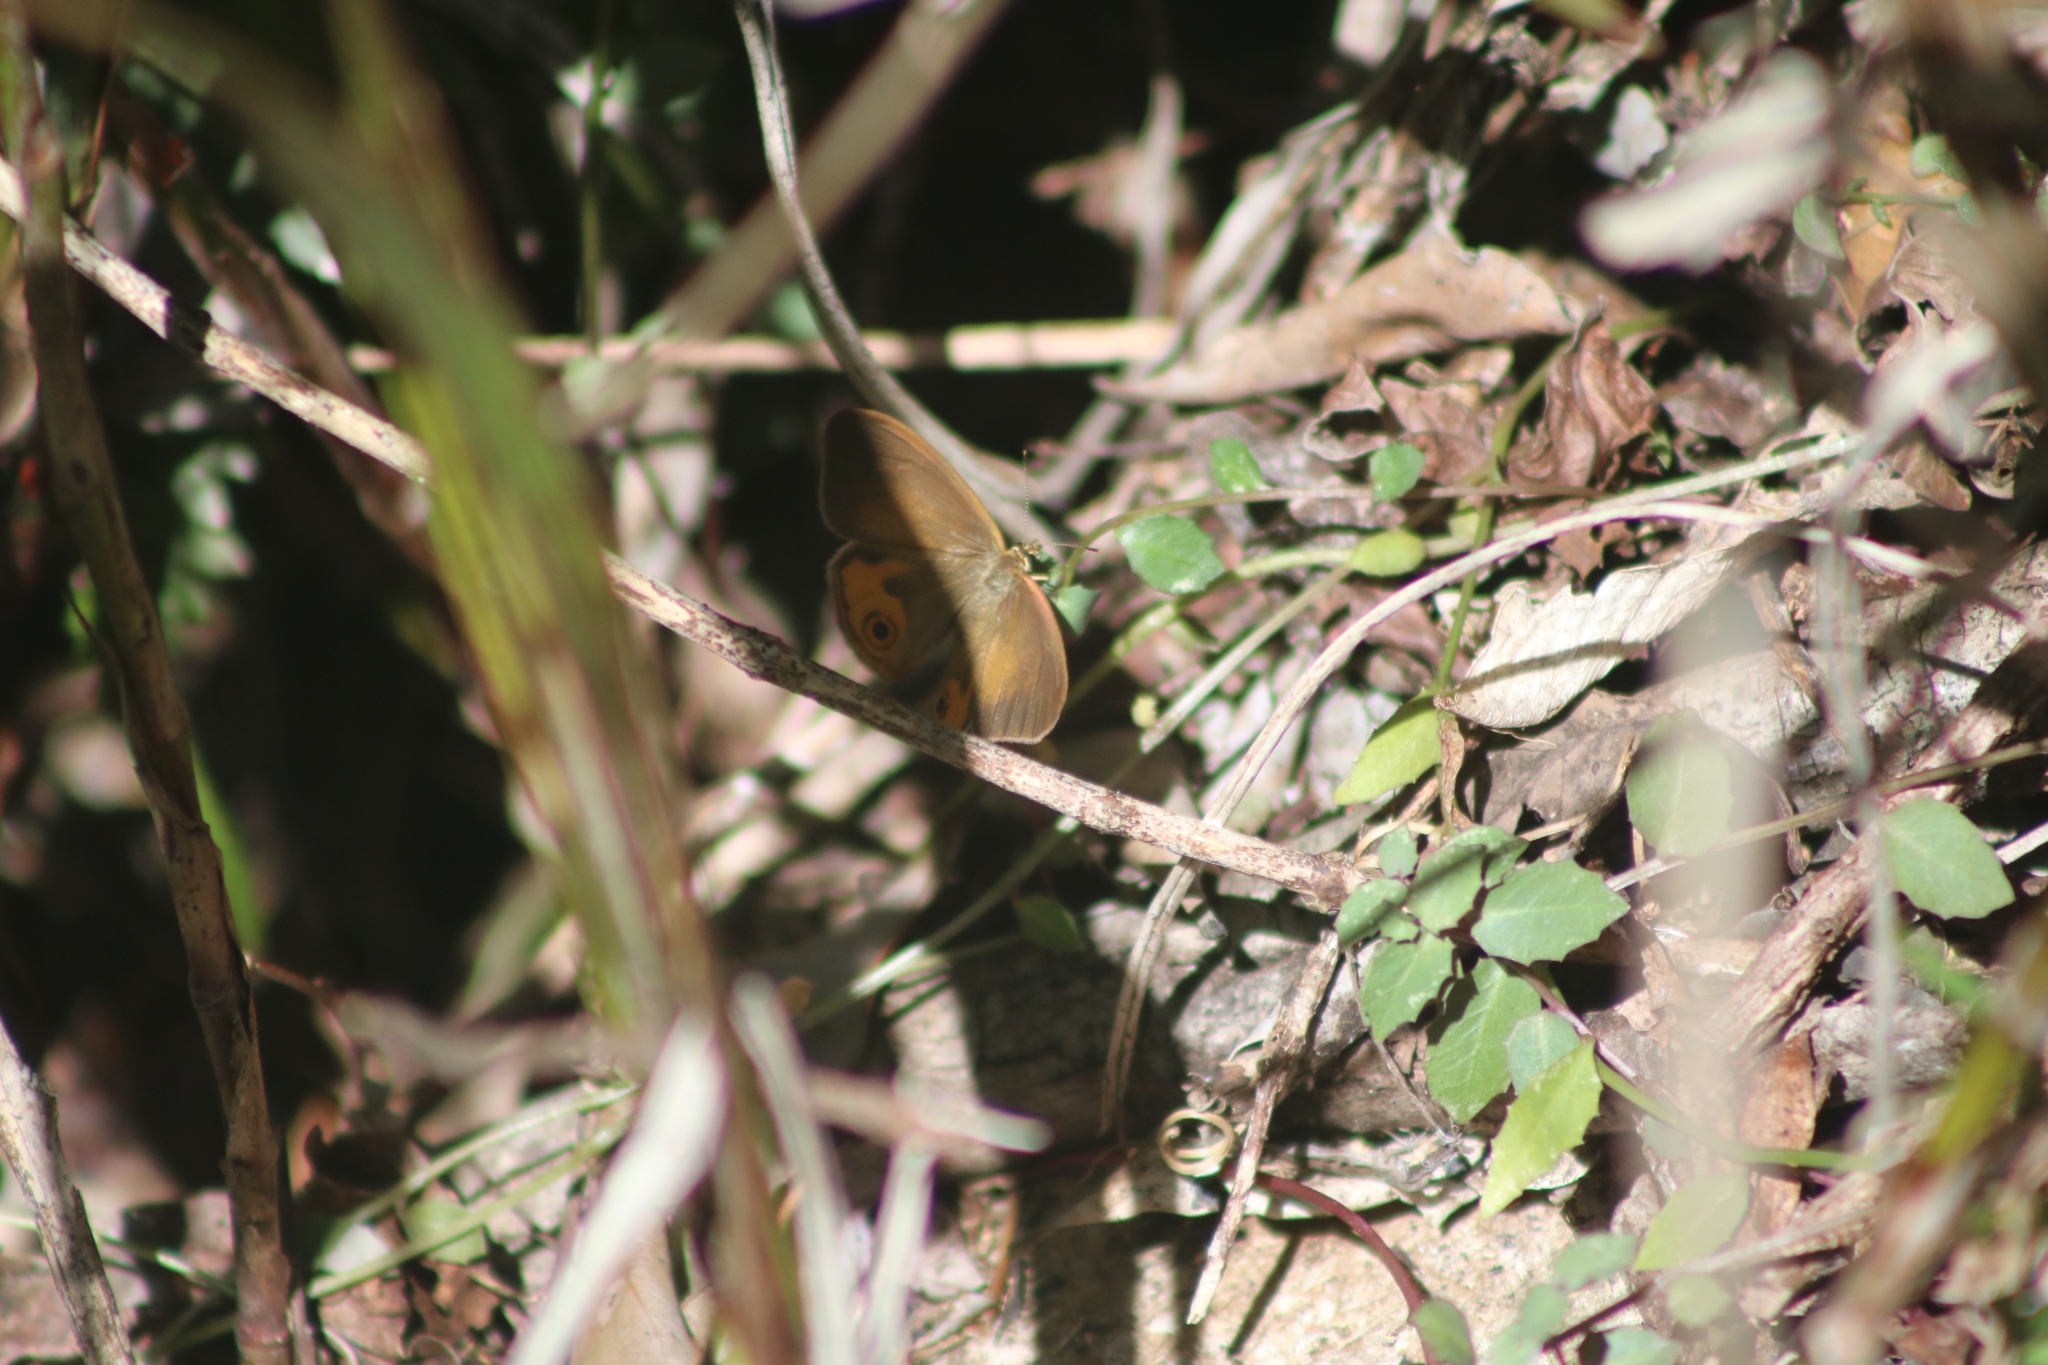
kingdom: Animalia
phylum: Arthropoda
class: Insecta
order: Lepidoptera
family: Nymphalidae
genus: Hypocysta
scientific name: Hypocysta metirius
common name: Brown ringlet
